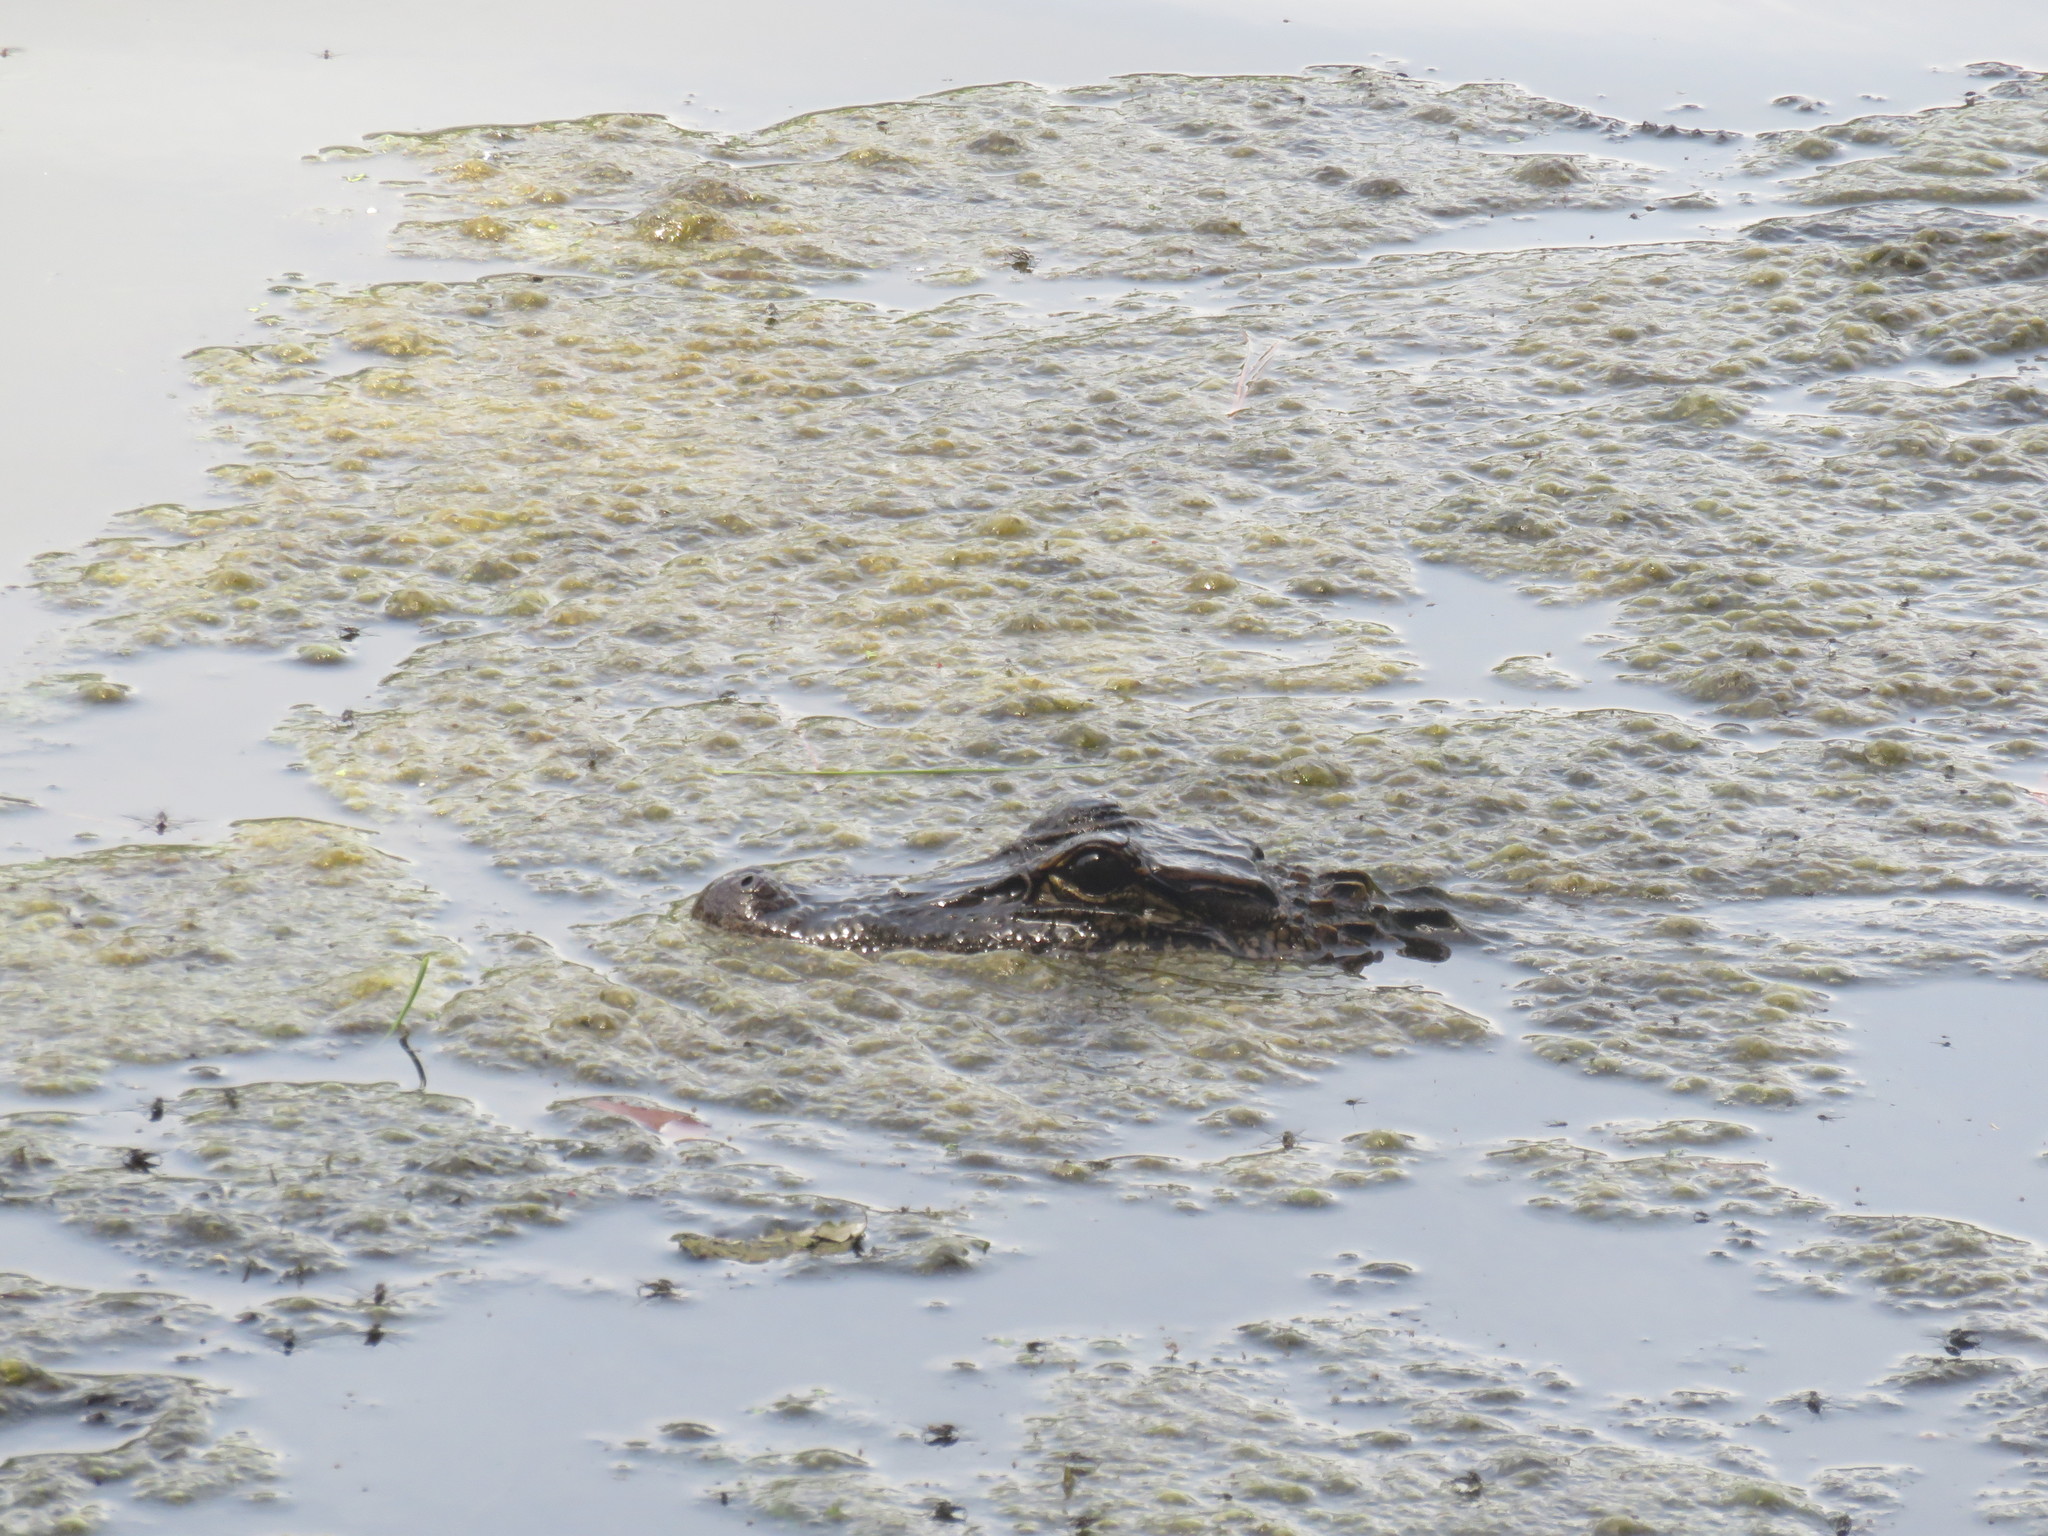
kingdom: Animalia
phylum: Chordata
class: Crocodylia
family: Alligatoridae
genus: Alligator
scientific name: Alligator mississippiensis
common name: American alligator
